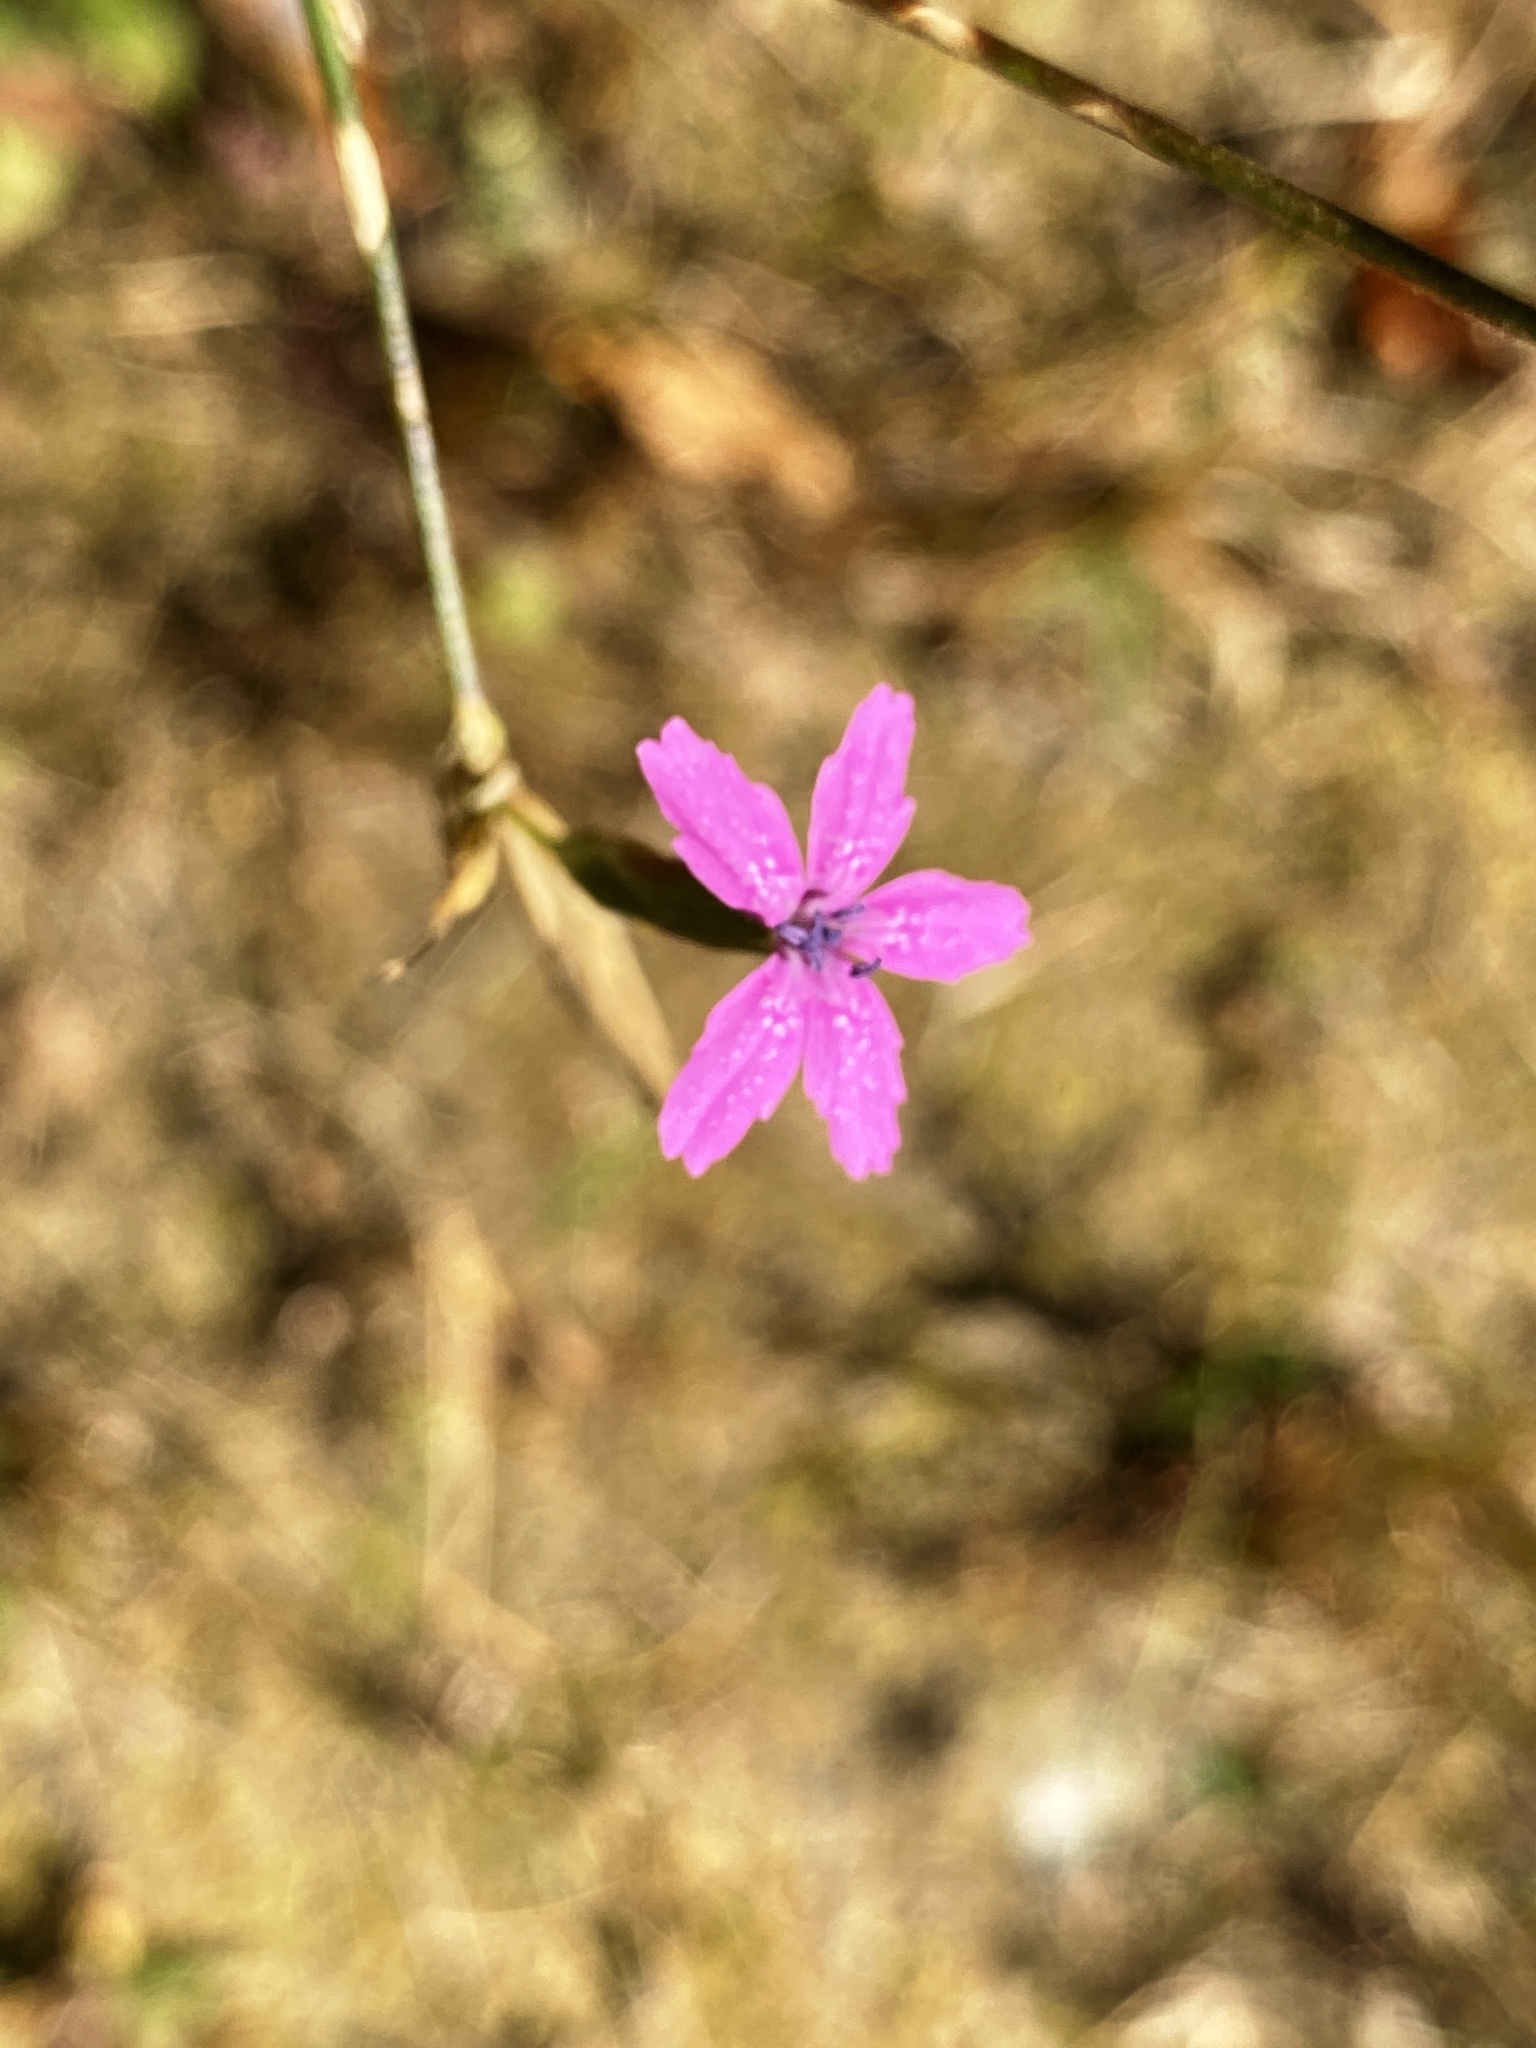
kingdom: Plantae
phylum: Tracheophyta
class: Magnoliopsida
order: Caryophyllales
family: Caryophyllaceae
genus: Dianthus
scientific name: Dianthus armeria
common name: Deptford pink
